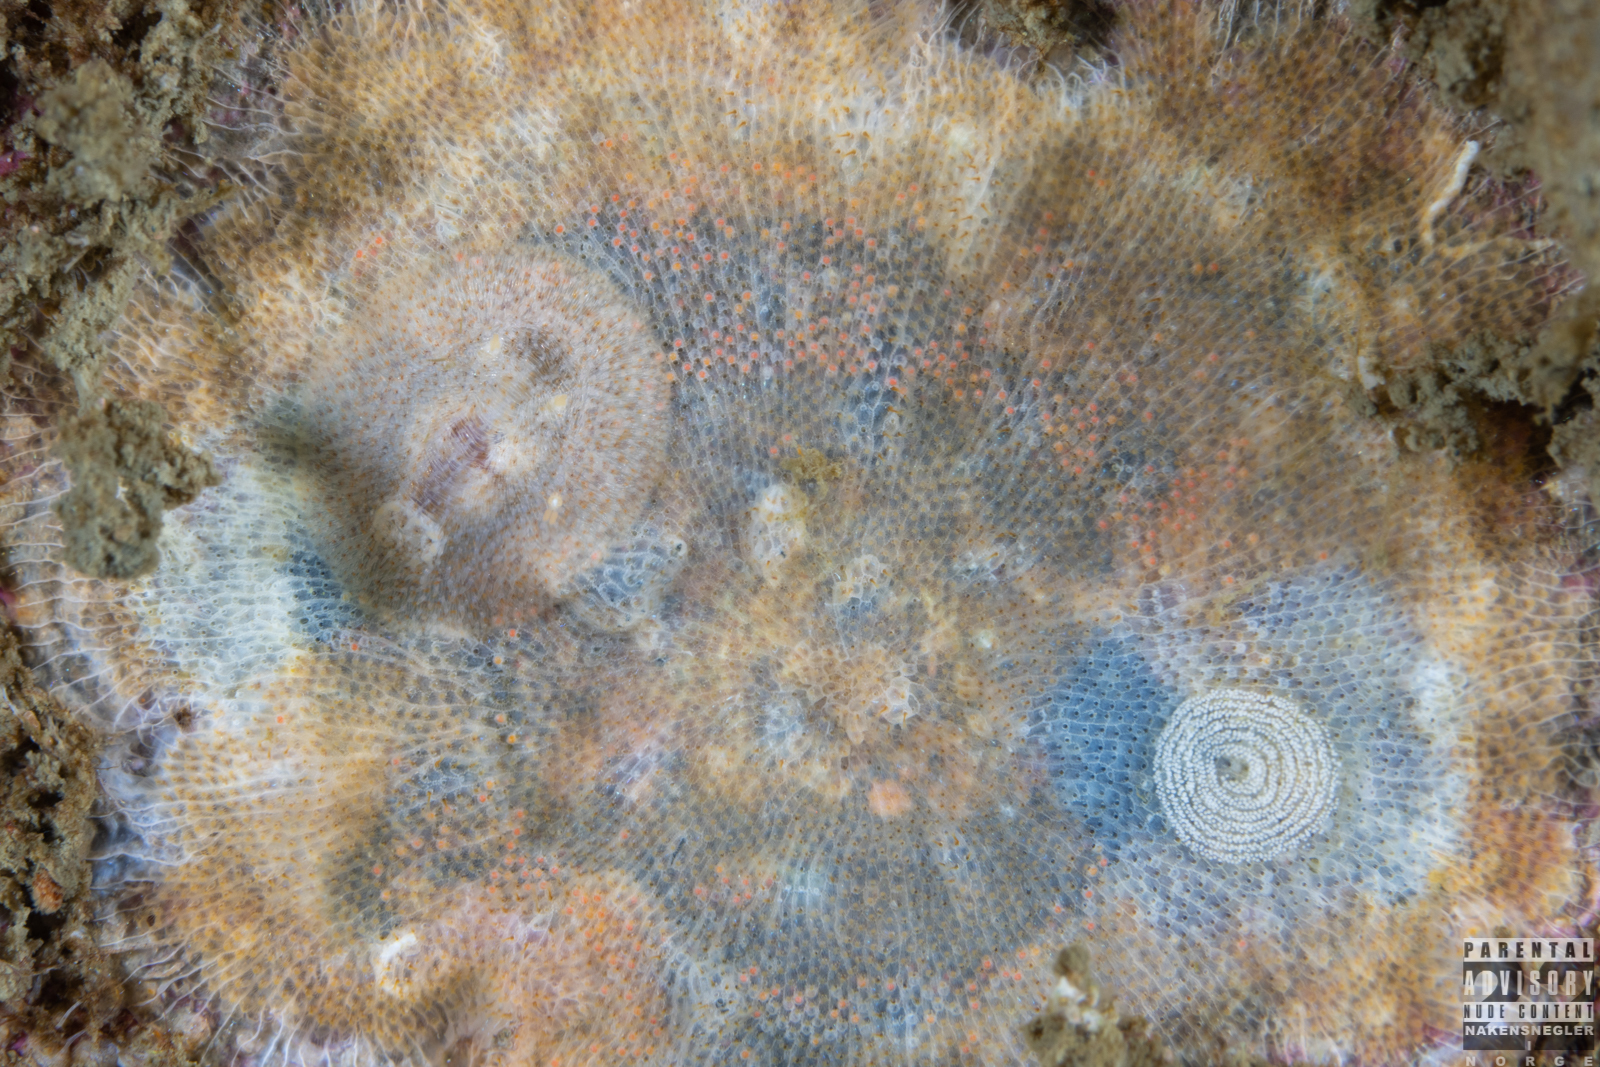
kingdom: Animalia
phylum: Mollusca
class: Gastropoda
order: Nudibranchia
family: Onchidorididae
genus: Idaliadoris
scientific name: Idaliadoris depressa
